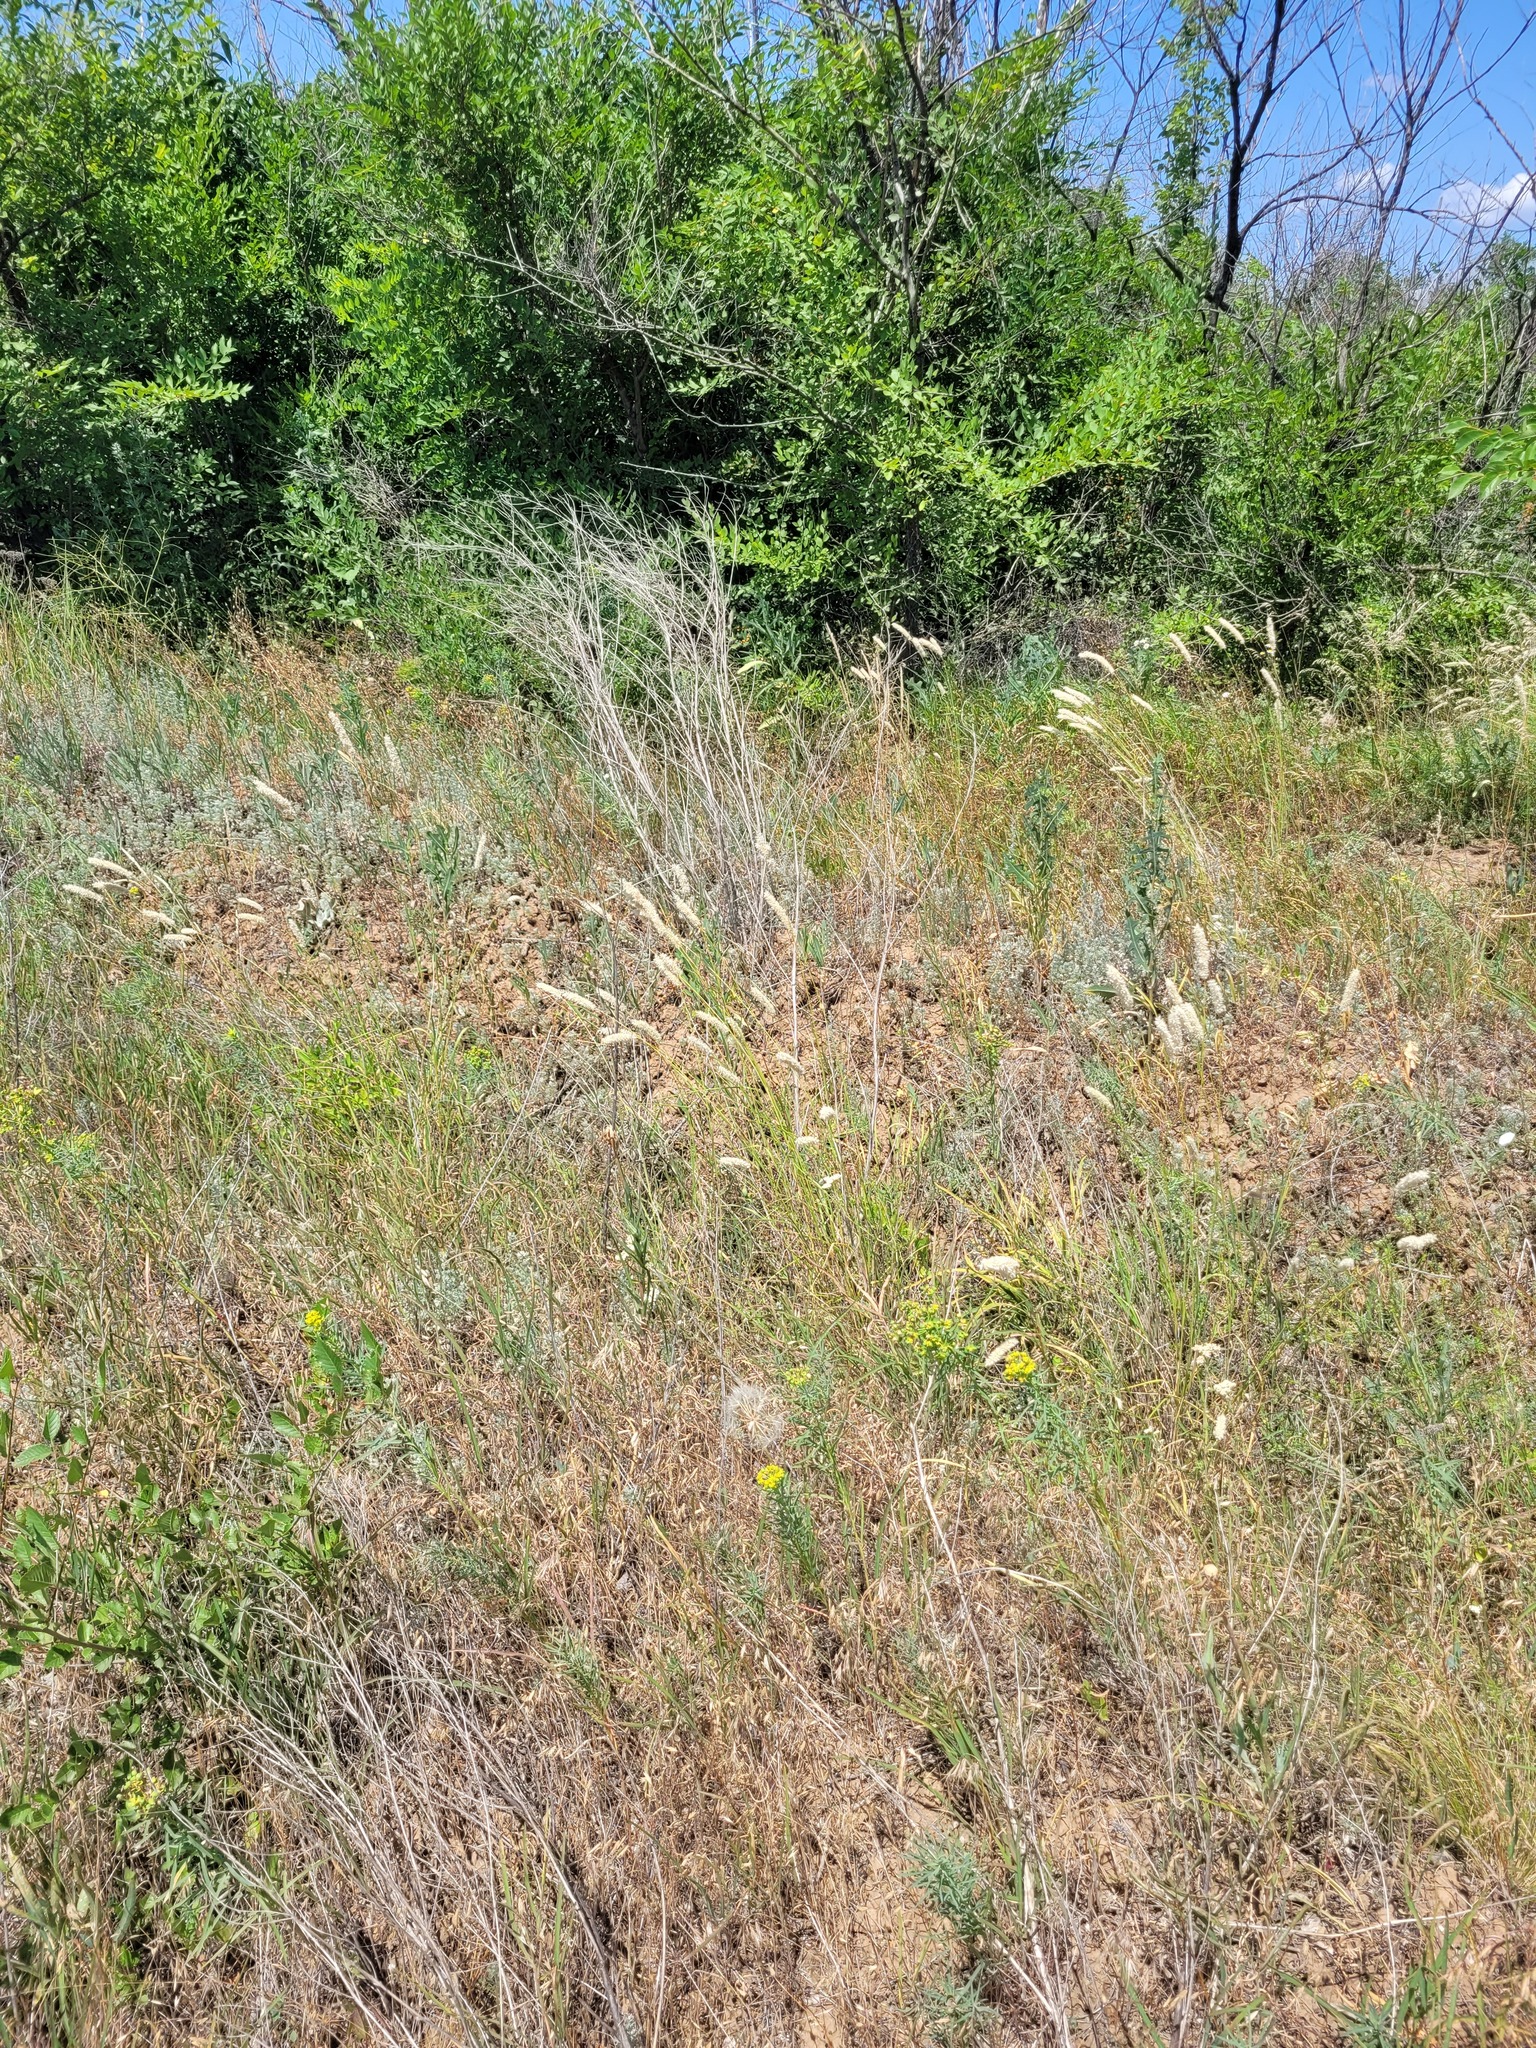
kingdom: Plantae
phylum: Tracheophyta
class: Liliopsida
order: Poales
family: Poaceae
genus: Melica
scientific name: Melica transsilvanica
